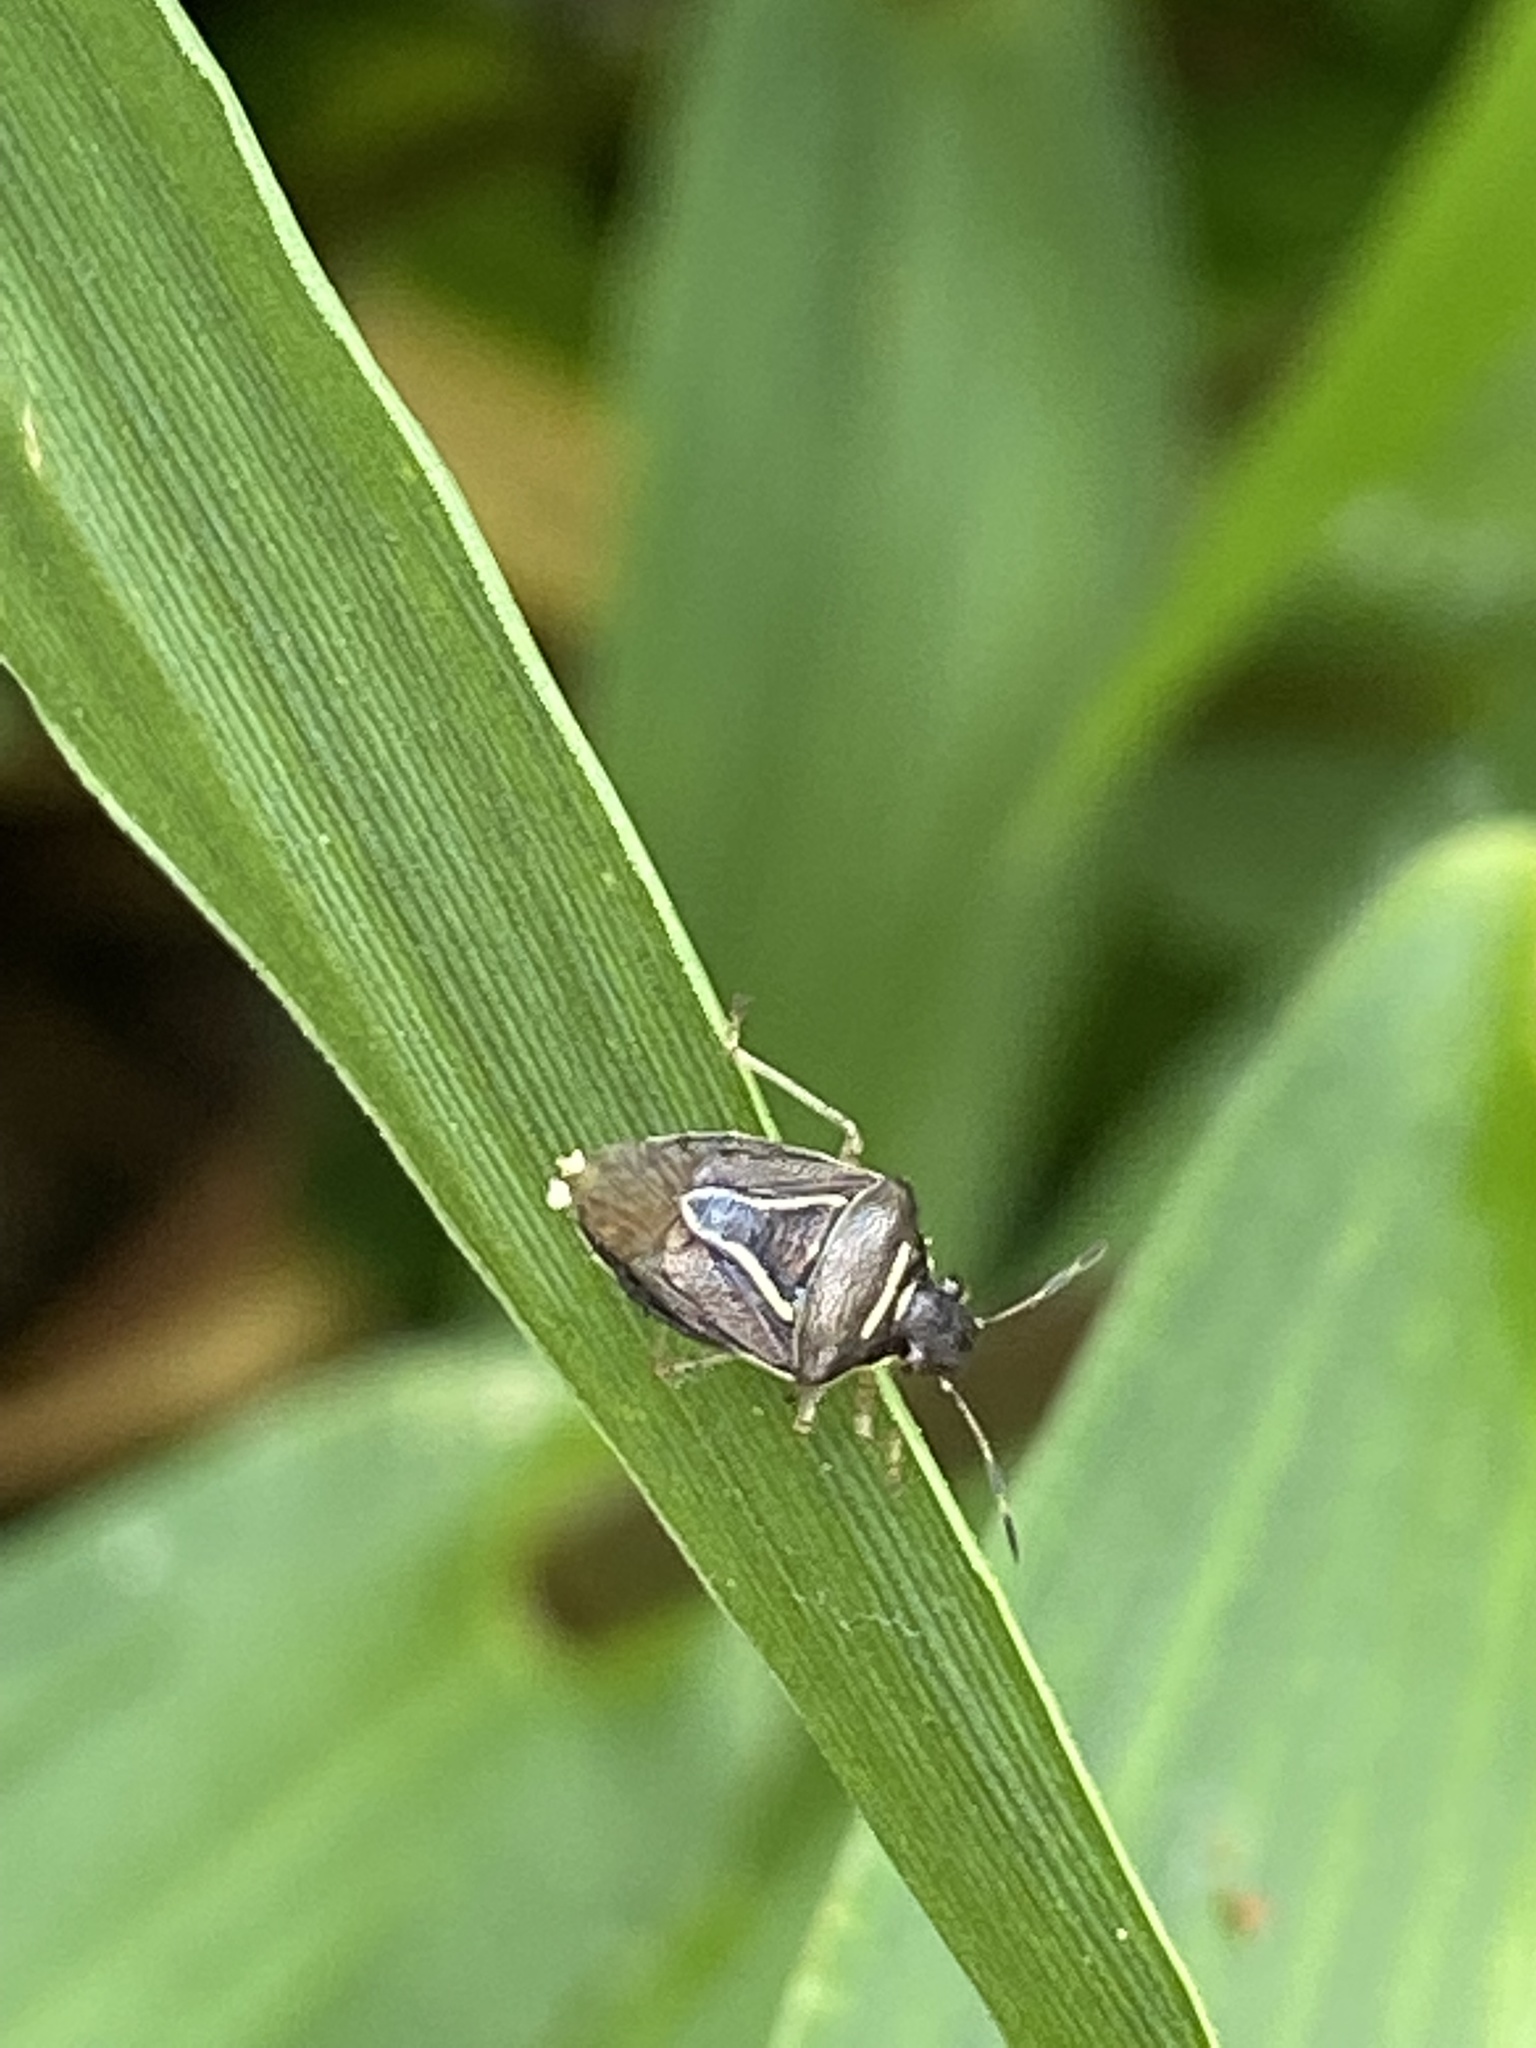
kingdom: Animalia
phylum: Arthropoda
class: Insecta
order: Hemiptera
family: Pentatomidae
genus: Mormidea
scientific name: Mormidea lugens
